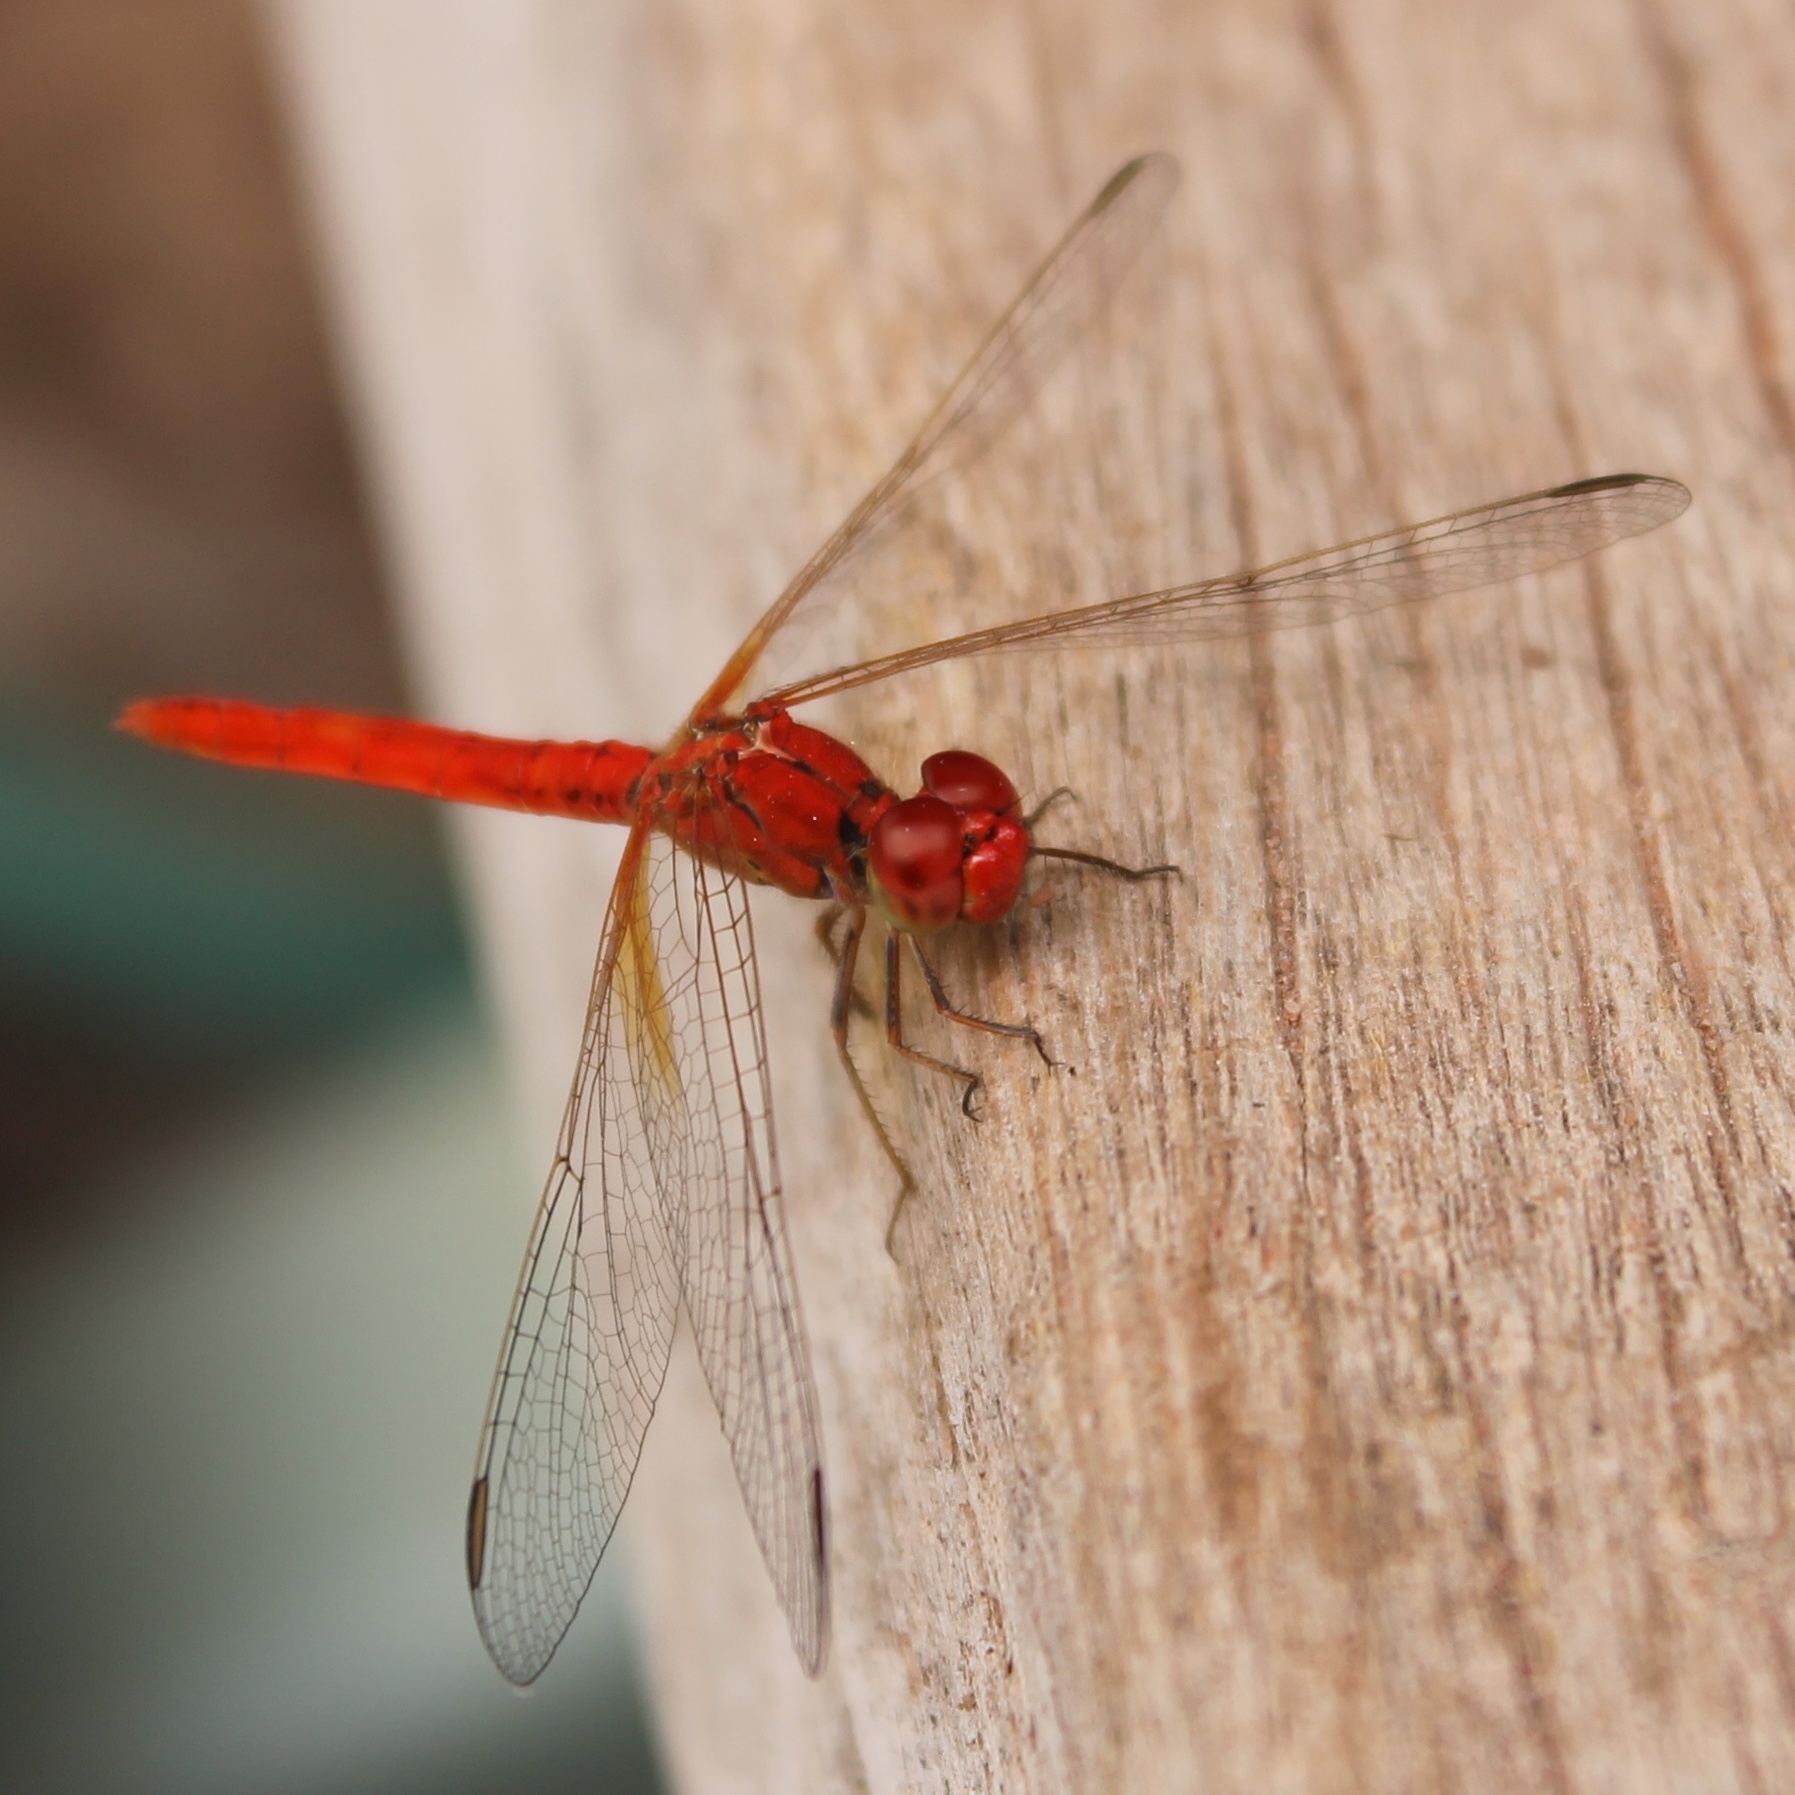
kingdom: Animalia
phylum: Arthropoda
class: Insecta
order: Odonata
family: Libellulidae
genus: Diplacodes
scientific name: Diplacodes haematodes
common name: Scarlet percher
